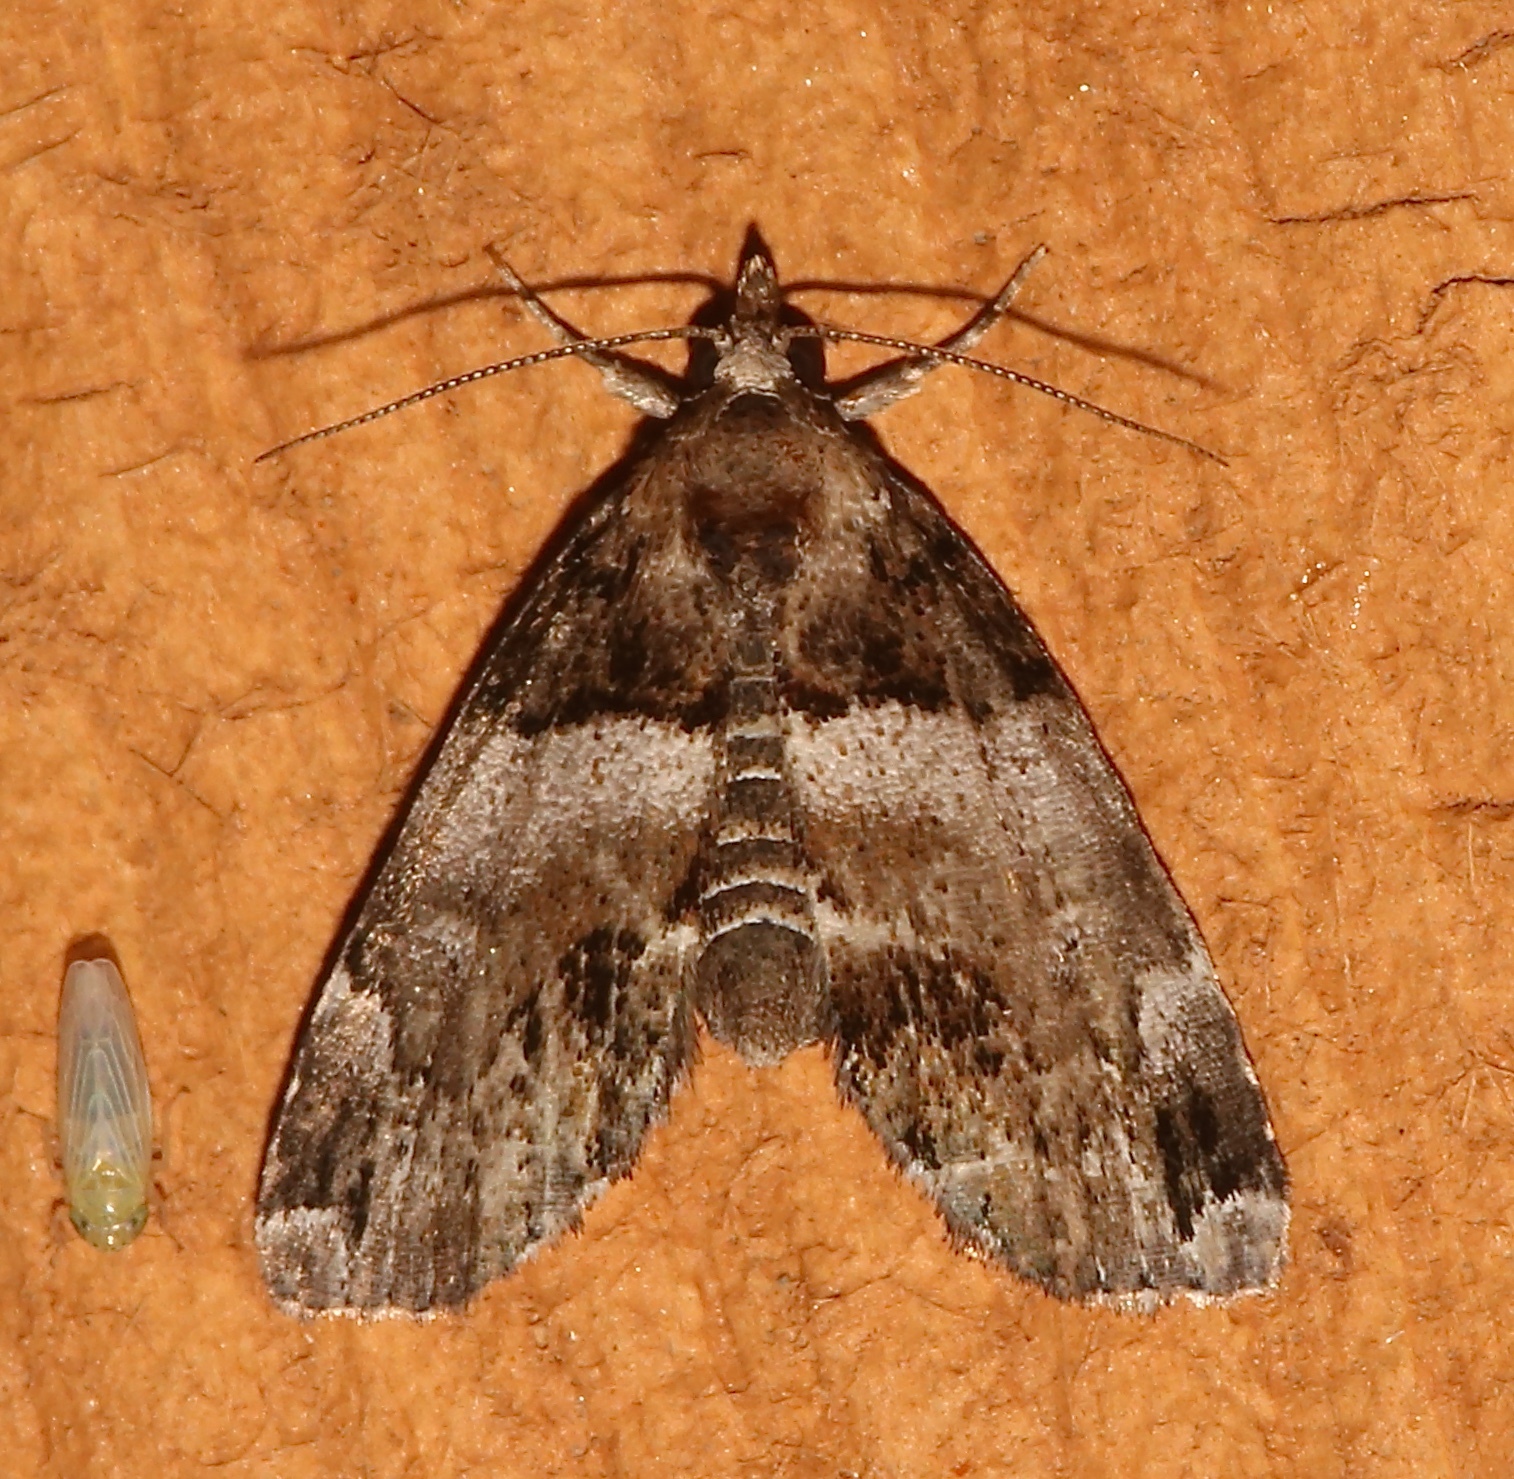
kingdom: Animalia
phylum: Arthropoda
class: Insecta
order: Lepidoptera
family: Erebidae
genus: Cutina
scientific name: Cutina distincta
